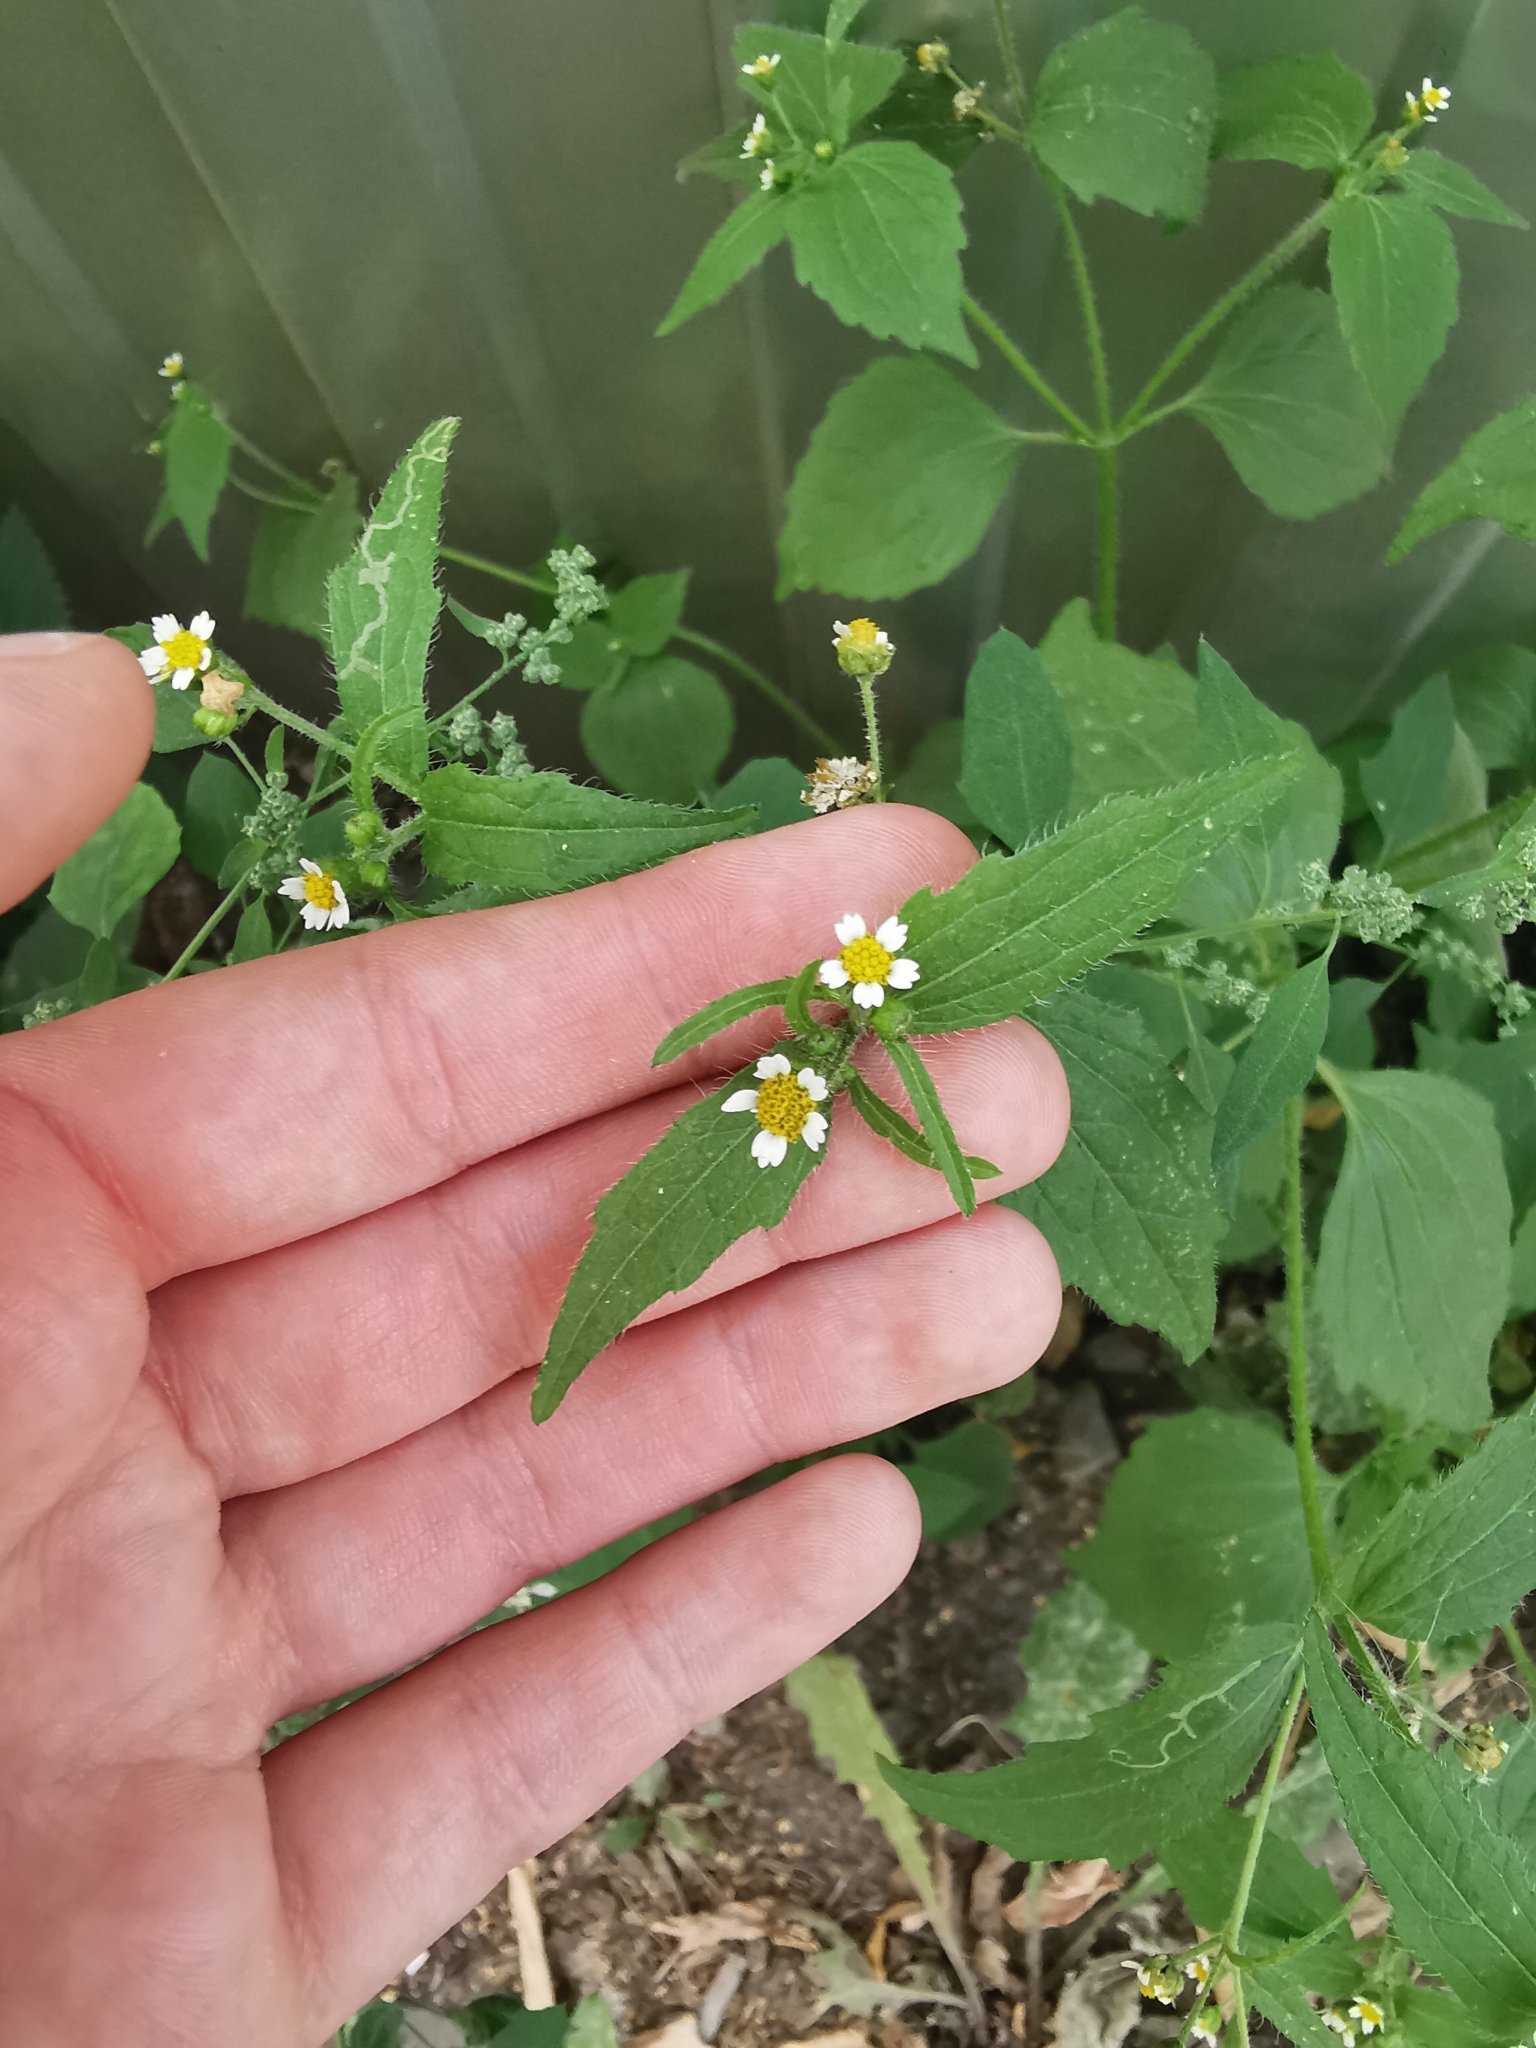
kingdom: Plantae
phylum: Tracheophyta
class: Magnoliopsida
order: Asterales
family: Asteraceae
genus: Galinsoga
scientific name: Galinsoga quadriradiata
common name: Shaggy soldier
